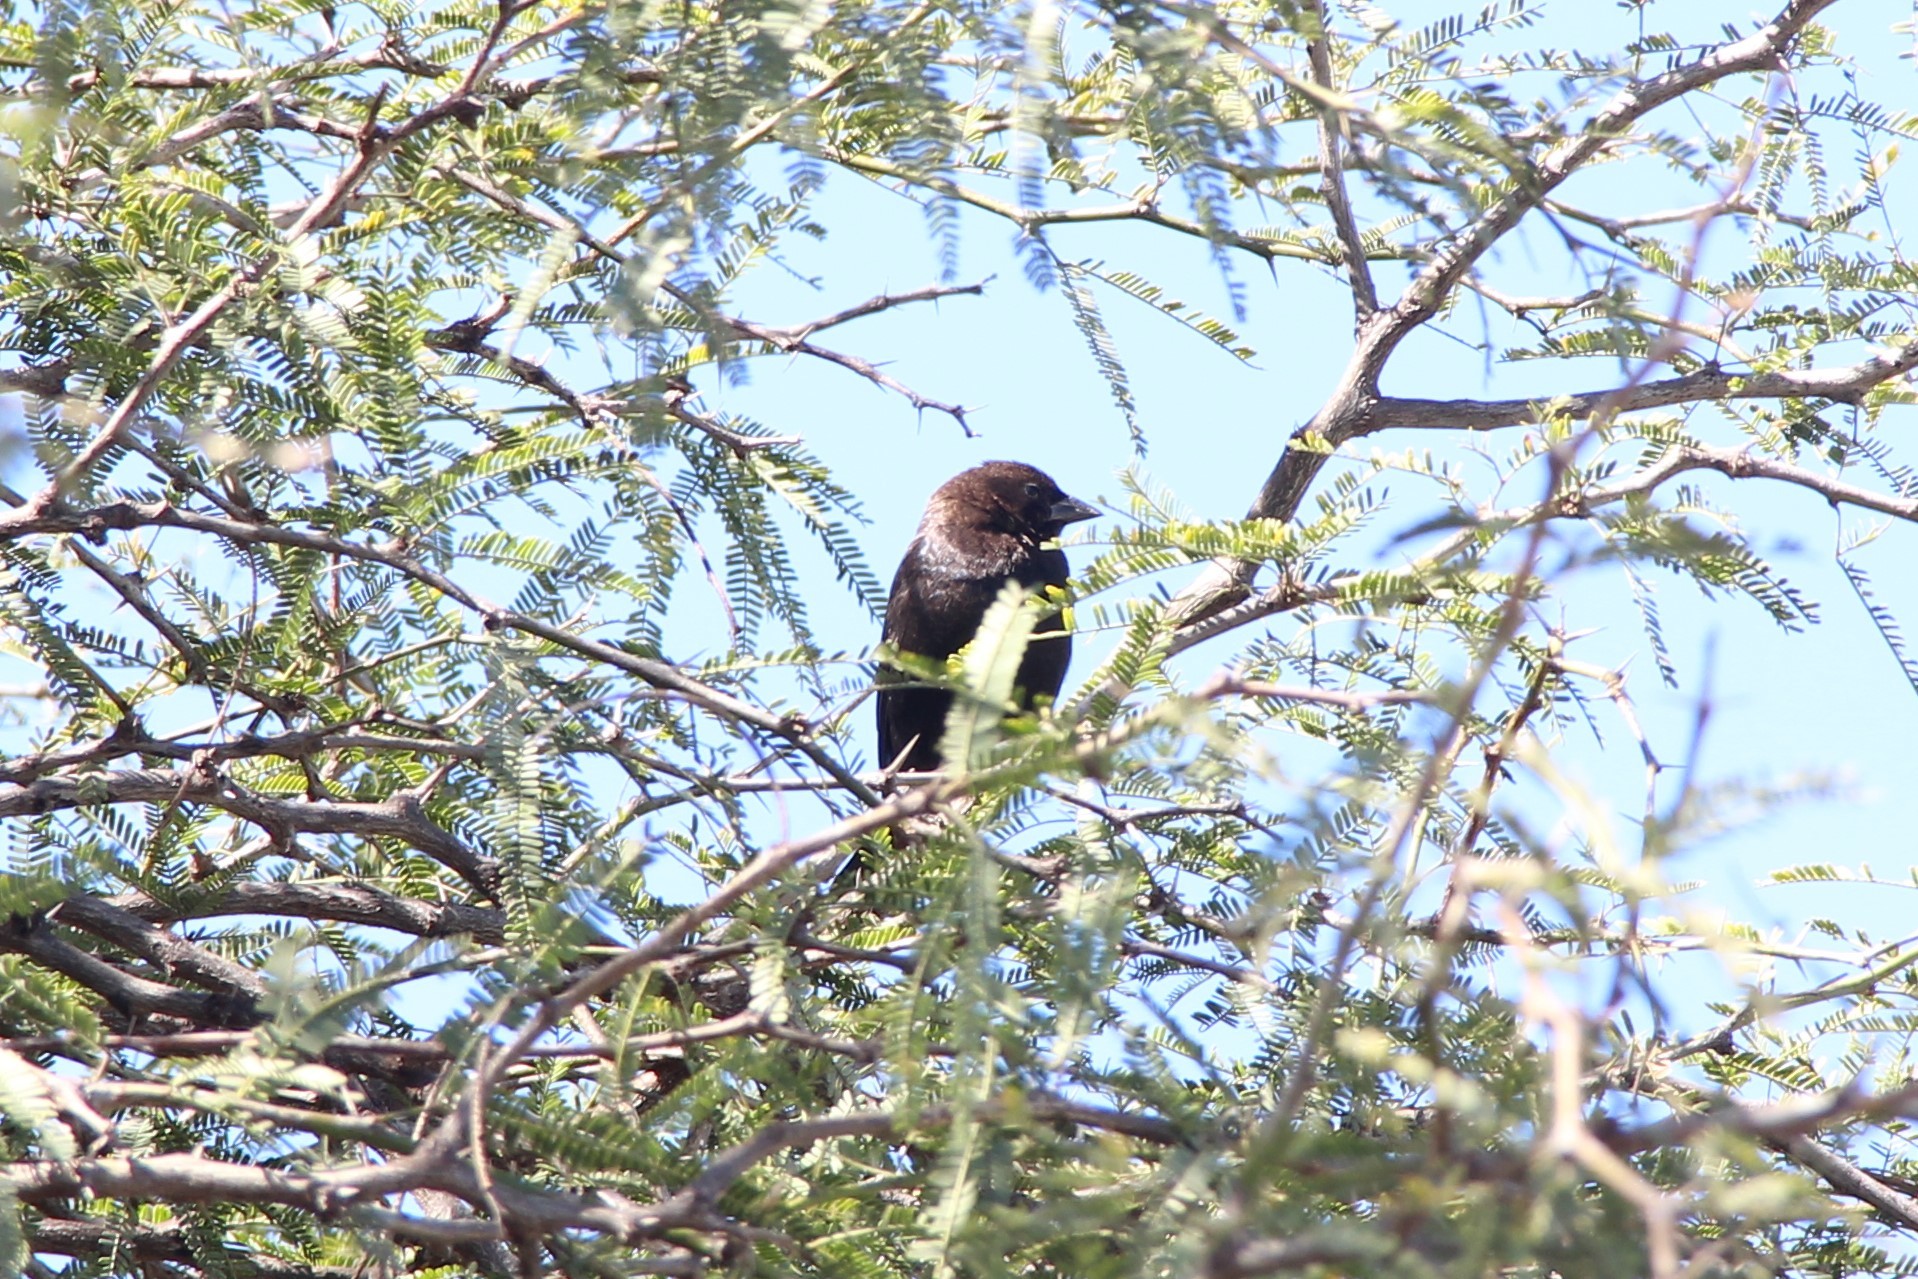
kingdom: Animalia
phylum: Chordata
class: Aves
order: Passeriformes
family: Icteridae
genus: Molothrus
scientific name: Molothrus ater
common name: Brown-headed cowbird
